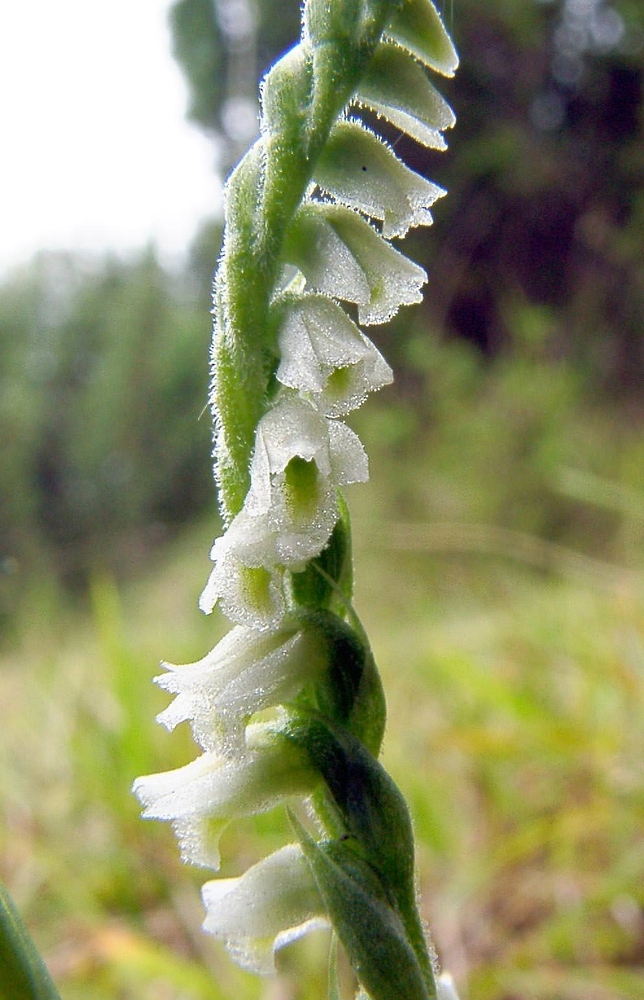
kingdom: Plantae
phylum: Tracheophyta
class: Liliopsida
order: Asparagales
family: Orchidaceae
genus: Spiranthes
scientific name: Spiranthes spiralis
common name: Autumn lady's-tresses
